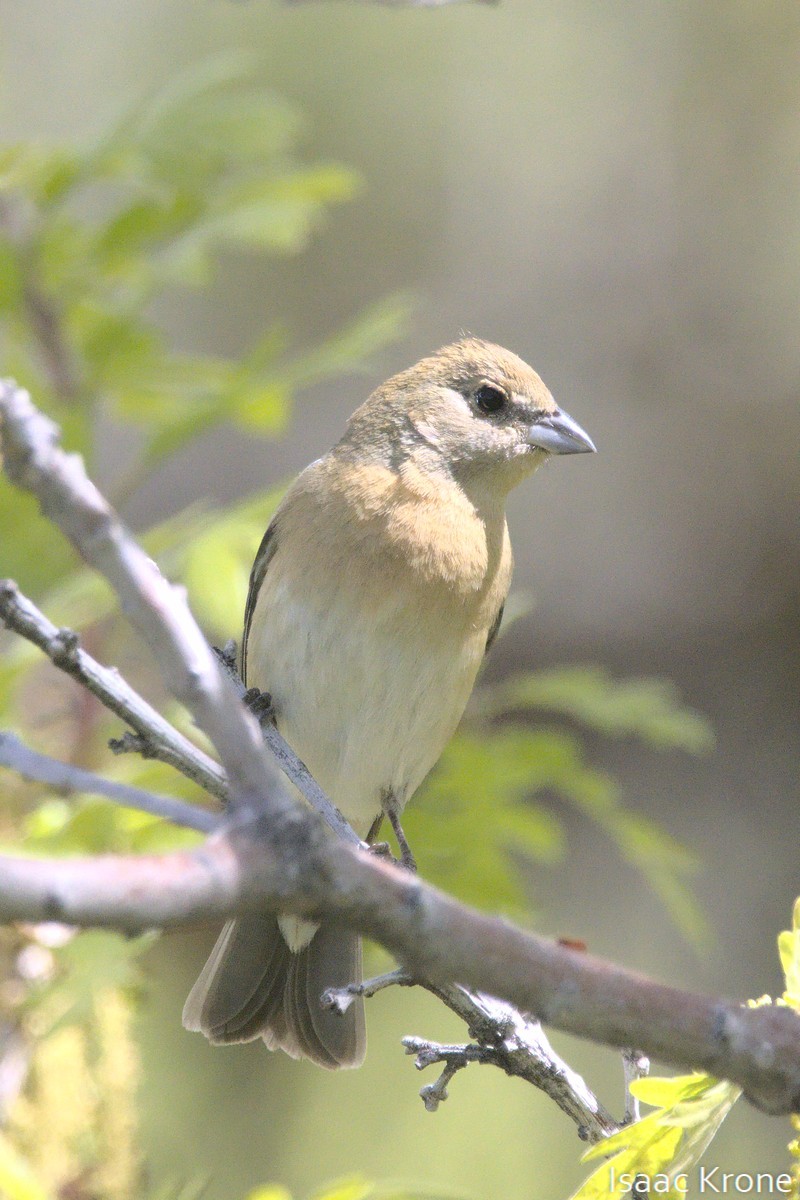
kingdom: Animalia
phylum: Chordata
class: Aves
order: Passeriformes
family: Cardinalidae
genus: Passerina
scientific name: Passerina amoena
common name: Lazuli bunting
